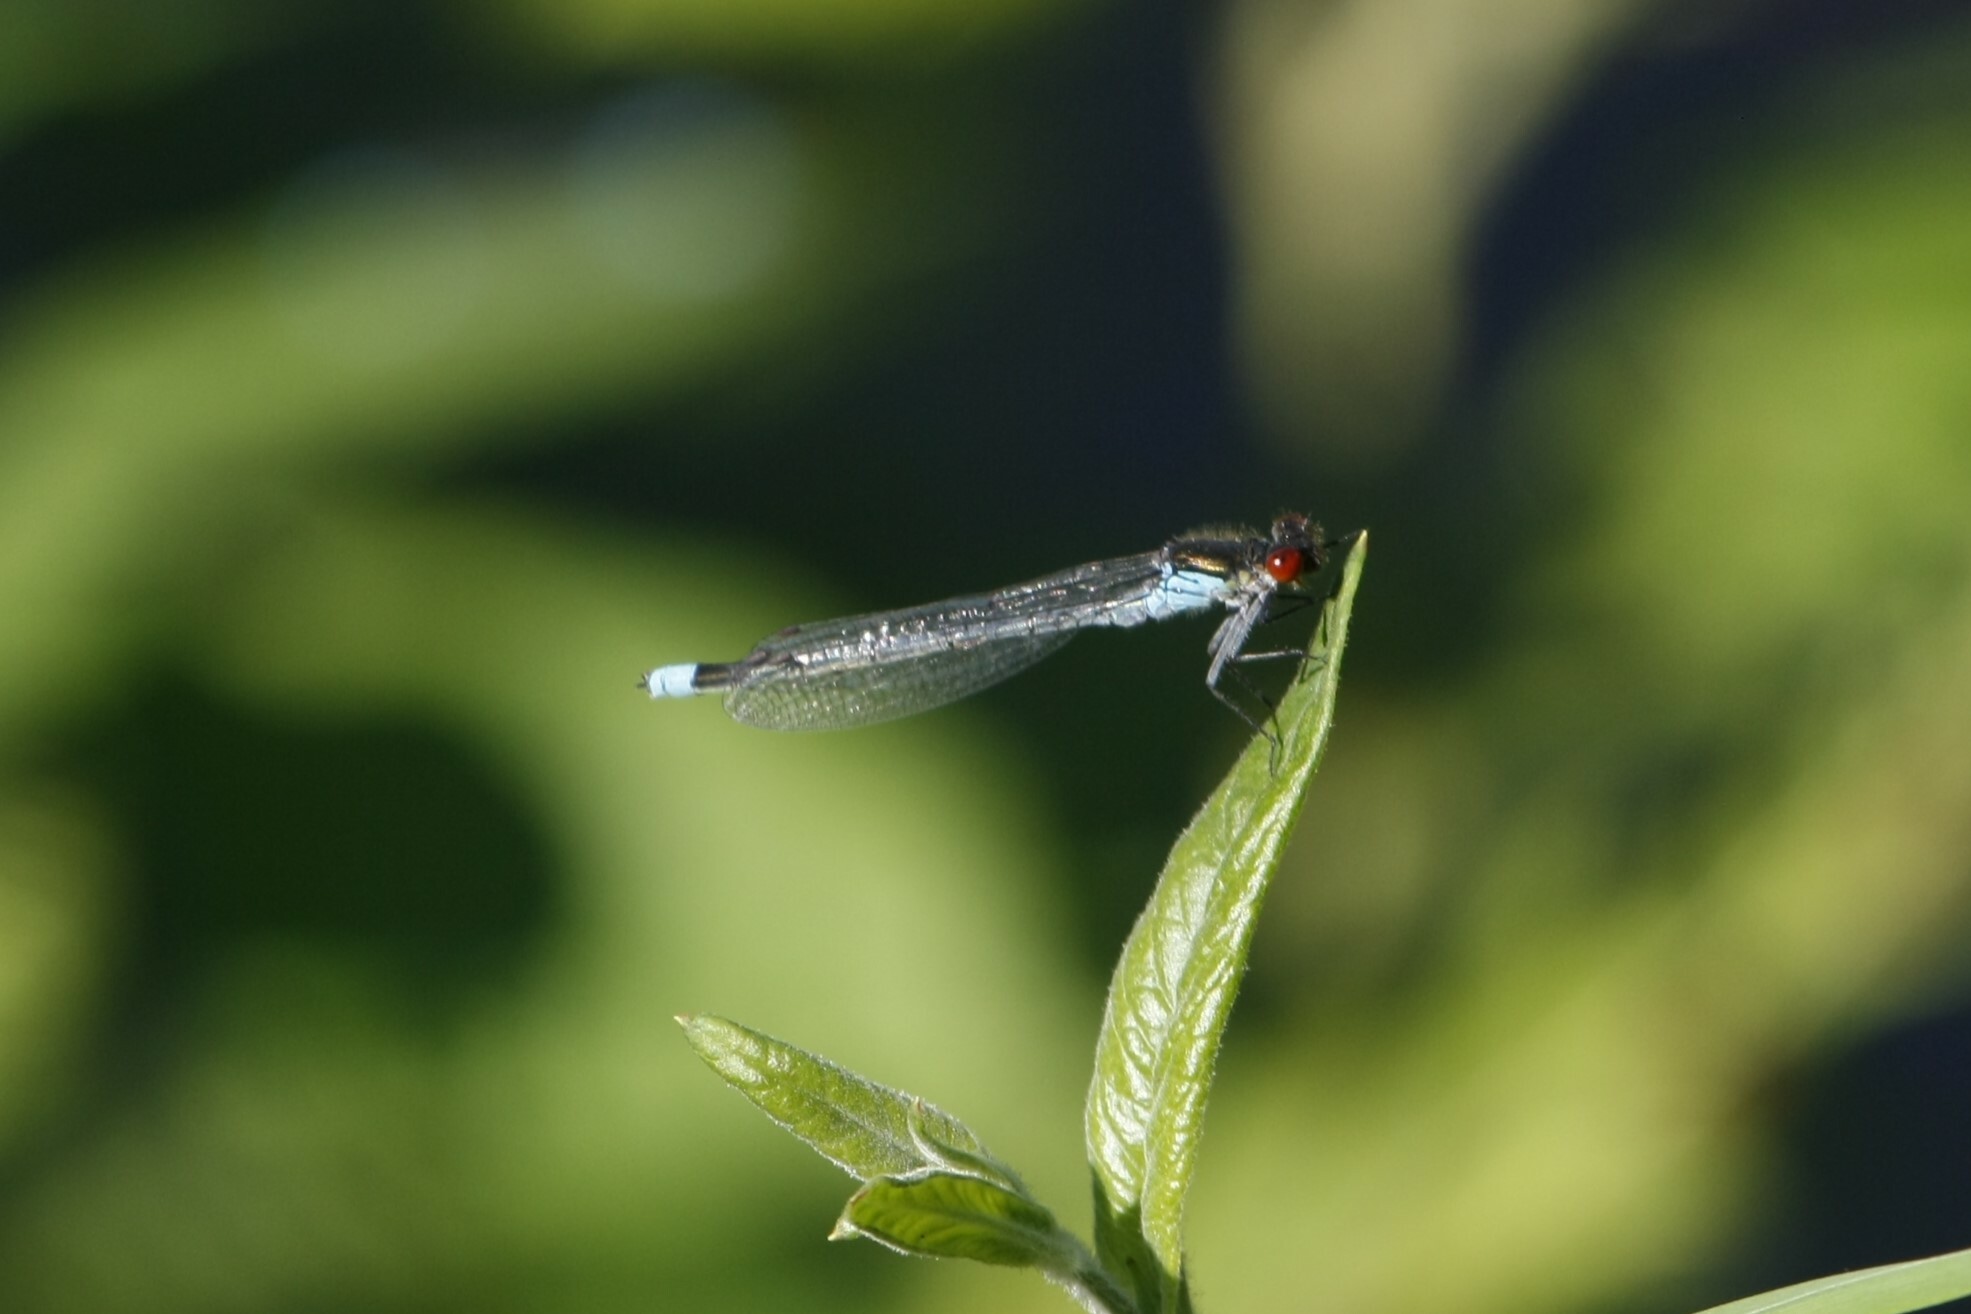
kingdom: Animalia
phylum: Arthropoda
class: Insecta
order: Odonata
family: Coenagrionidae
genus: Erythromma
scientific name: Erythromma najas
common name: Red-eyed damselfly
